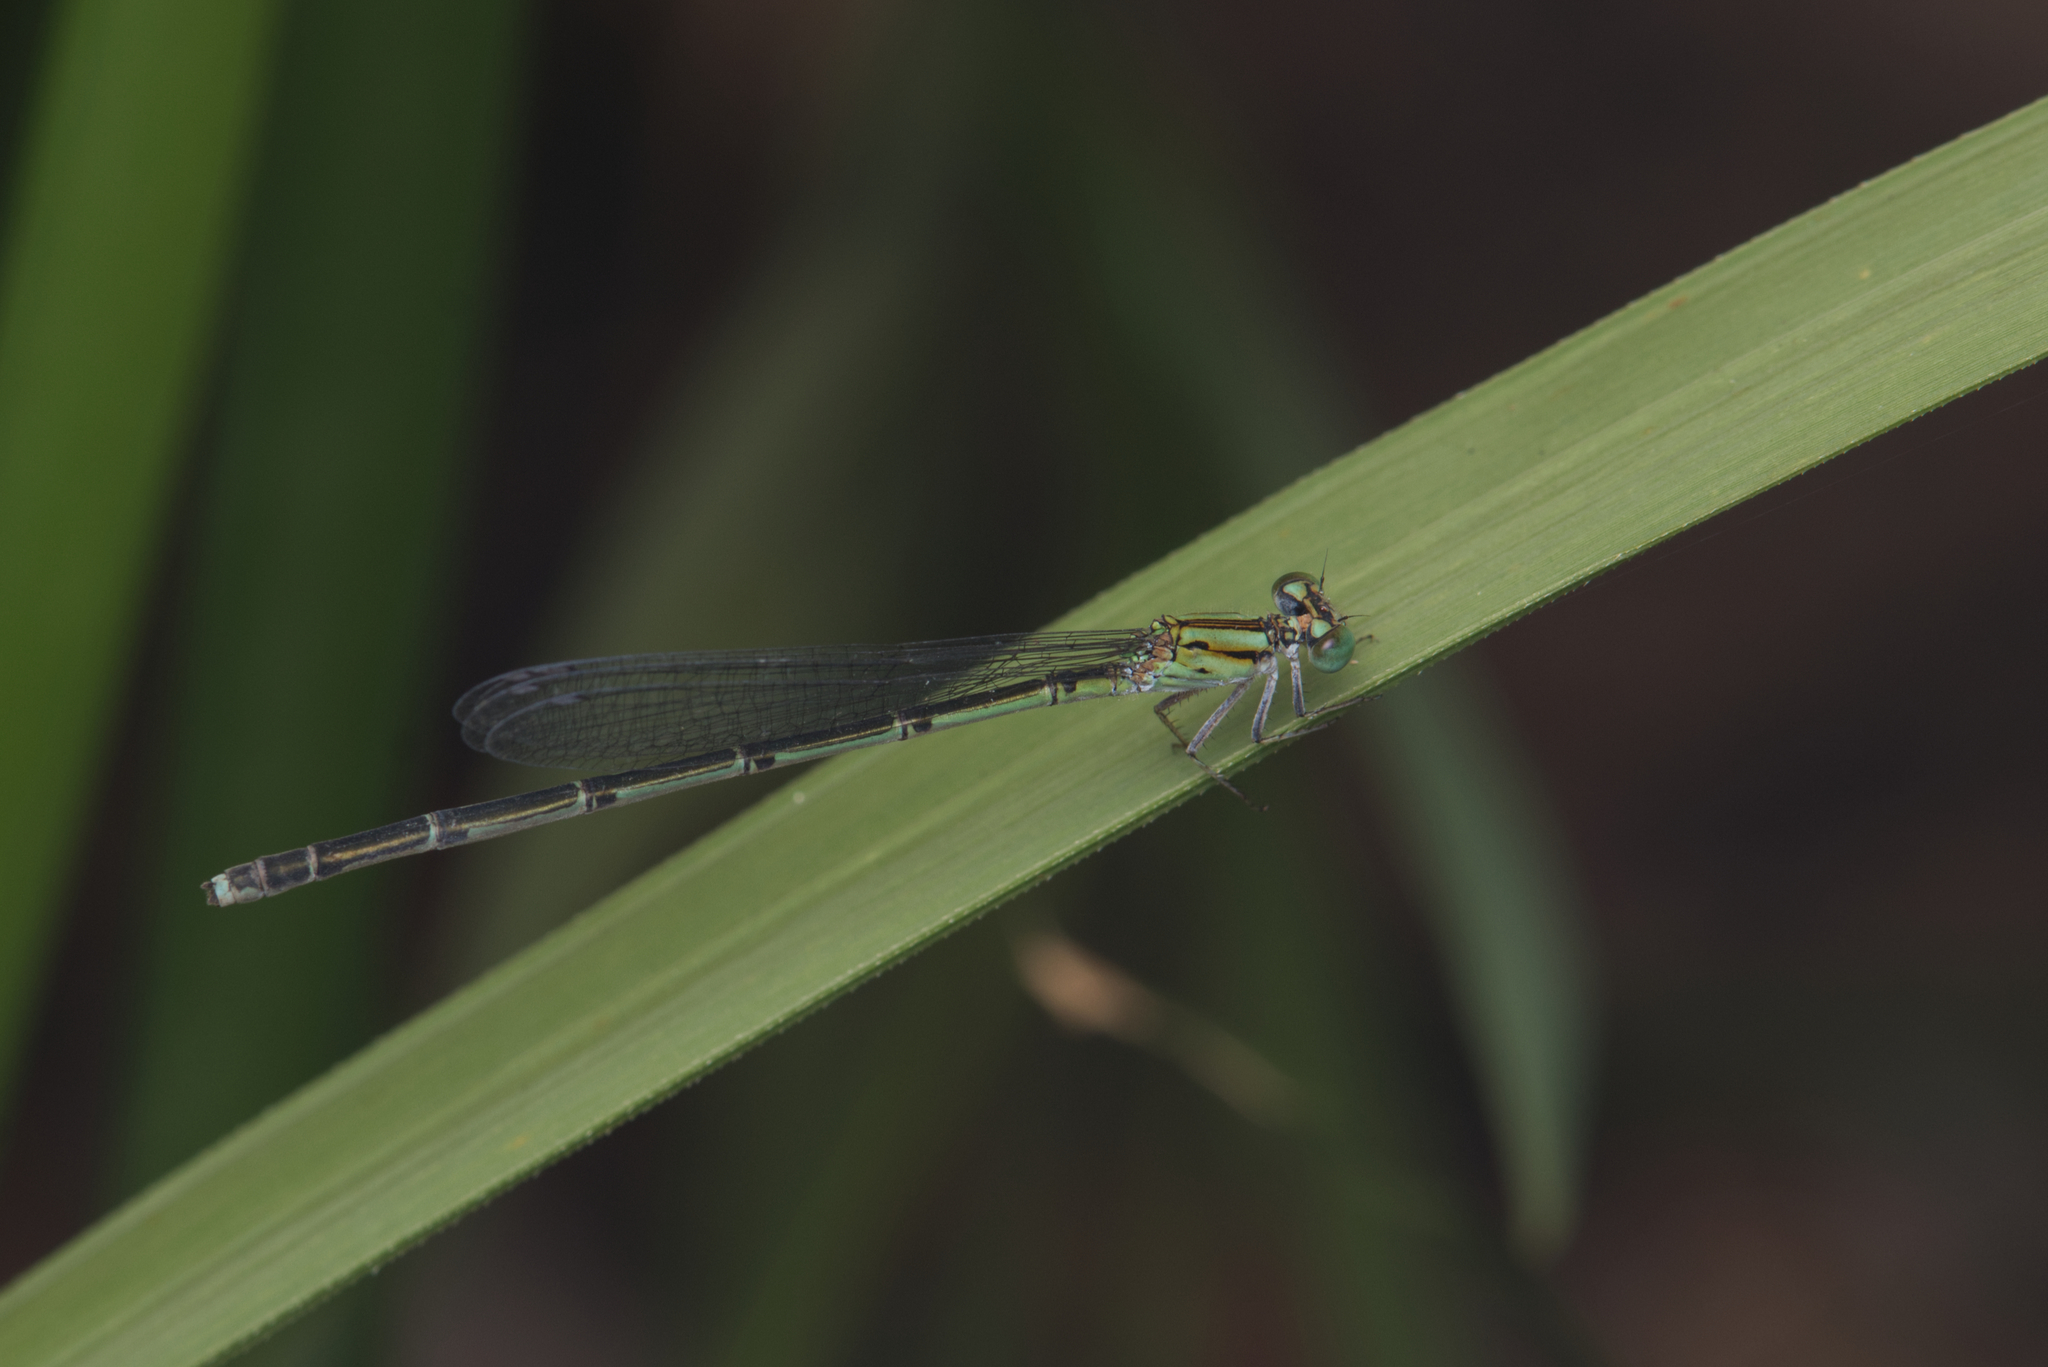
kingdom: Animalia
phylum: Arthropoda
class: Insecta
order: Odonata
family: Coenagrionidae
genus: Pseudagrion
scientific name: Pseudagrion microcephalum
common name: Blue riverdamsel
